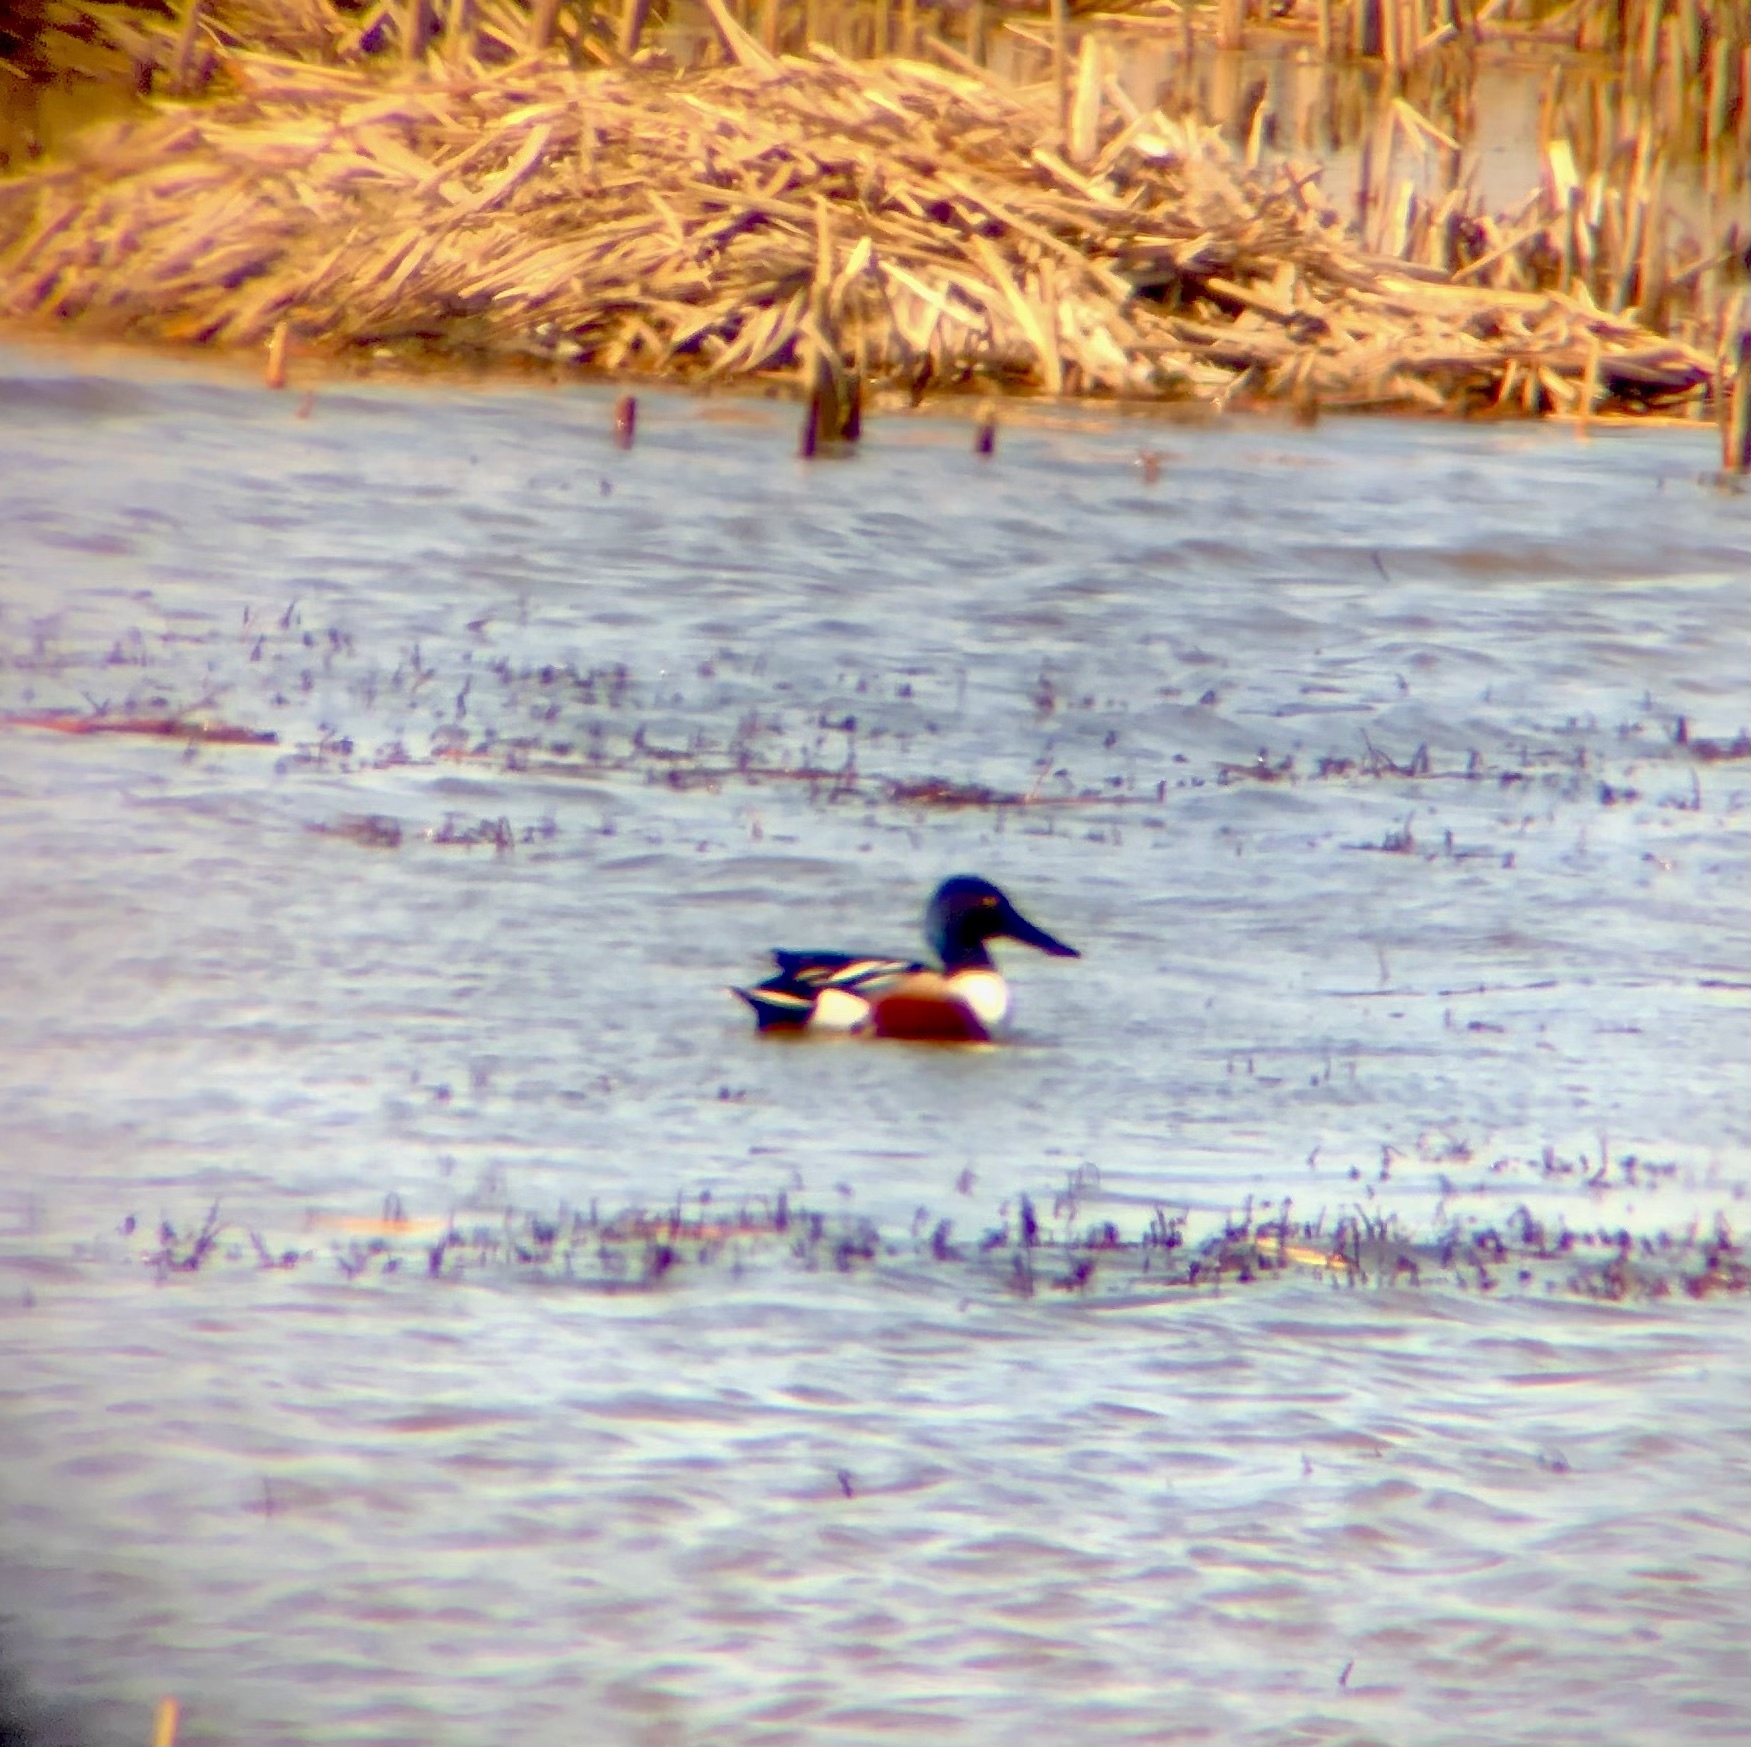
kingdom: Animalia
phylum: Chordata
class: Aves
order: Anseriformes
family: Anatidae
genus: Spatula
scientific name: Spatula clypeata
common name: Northern shoveler
